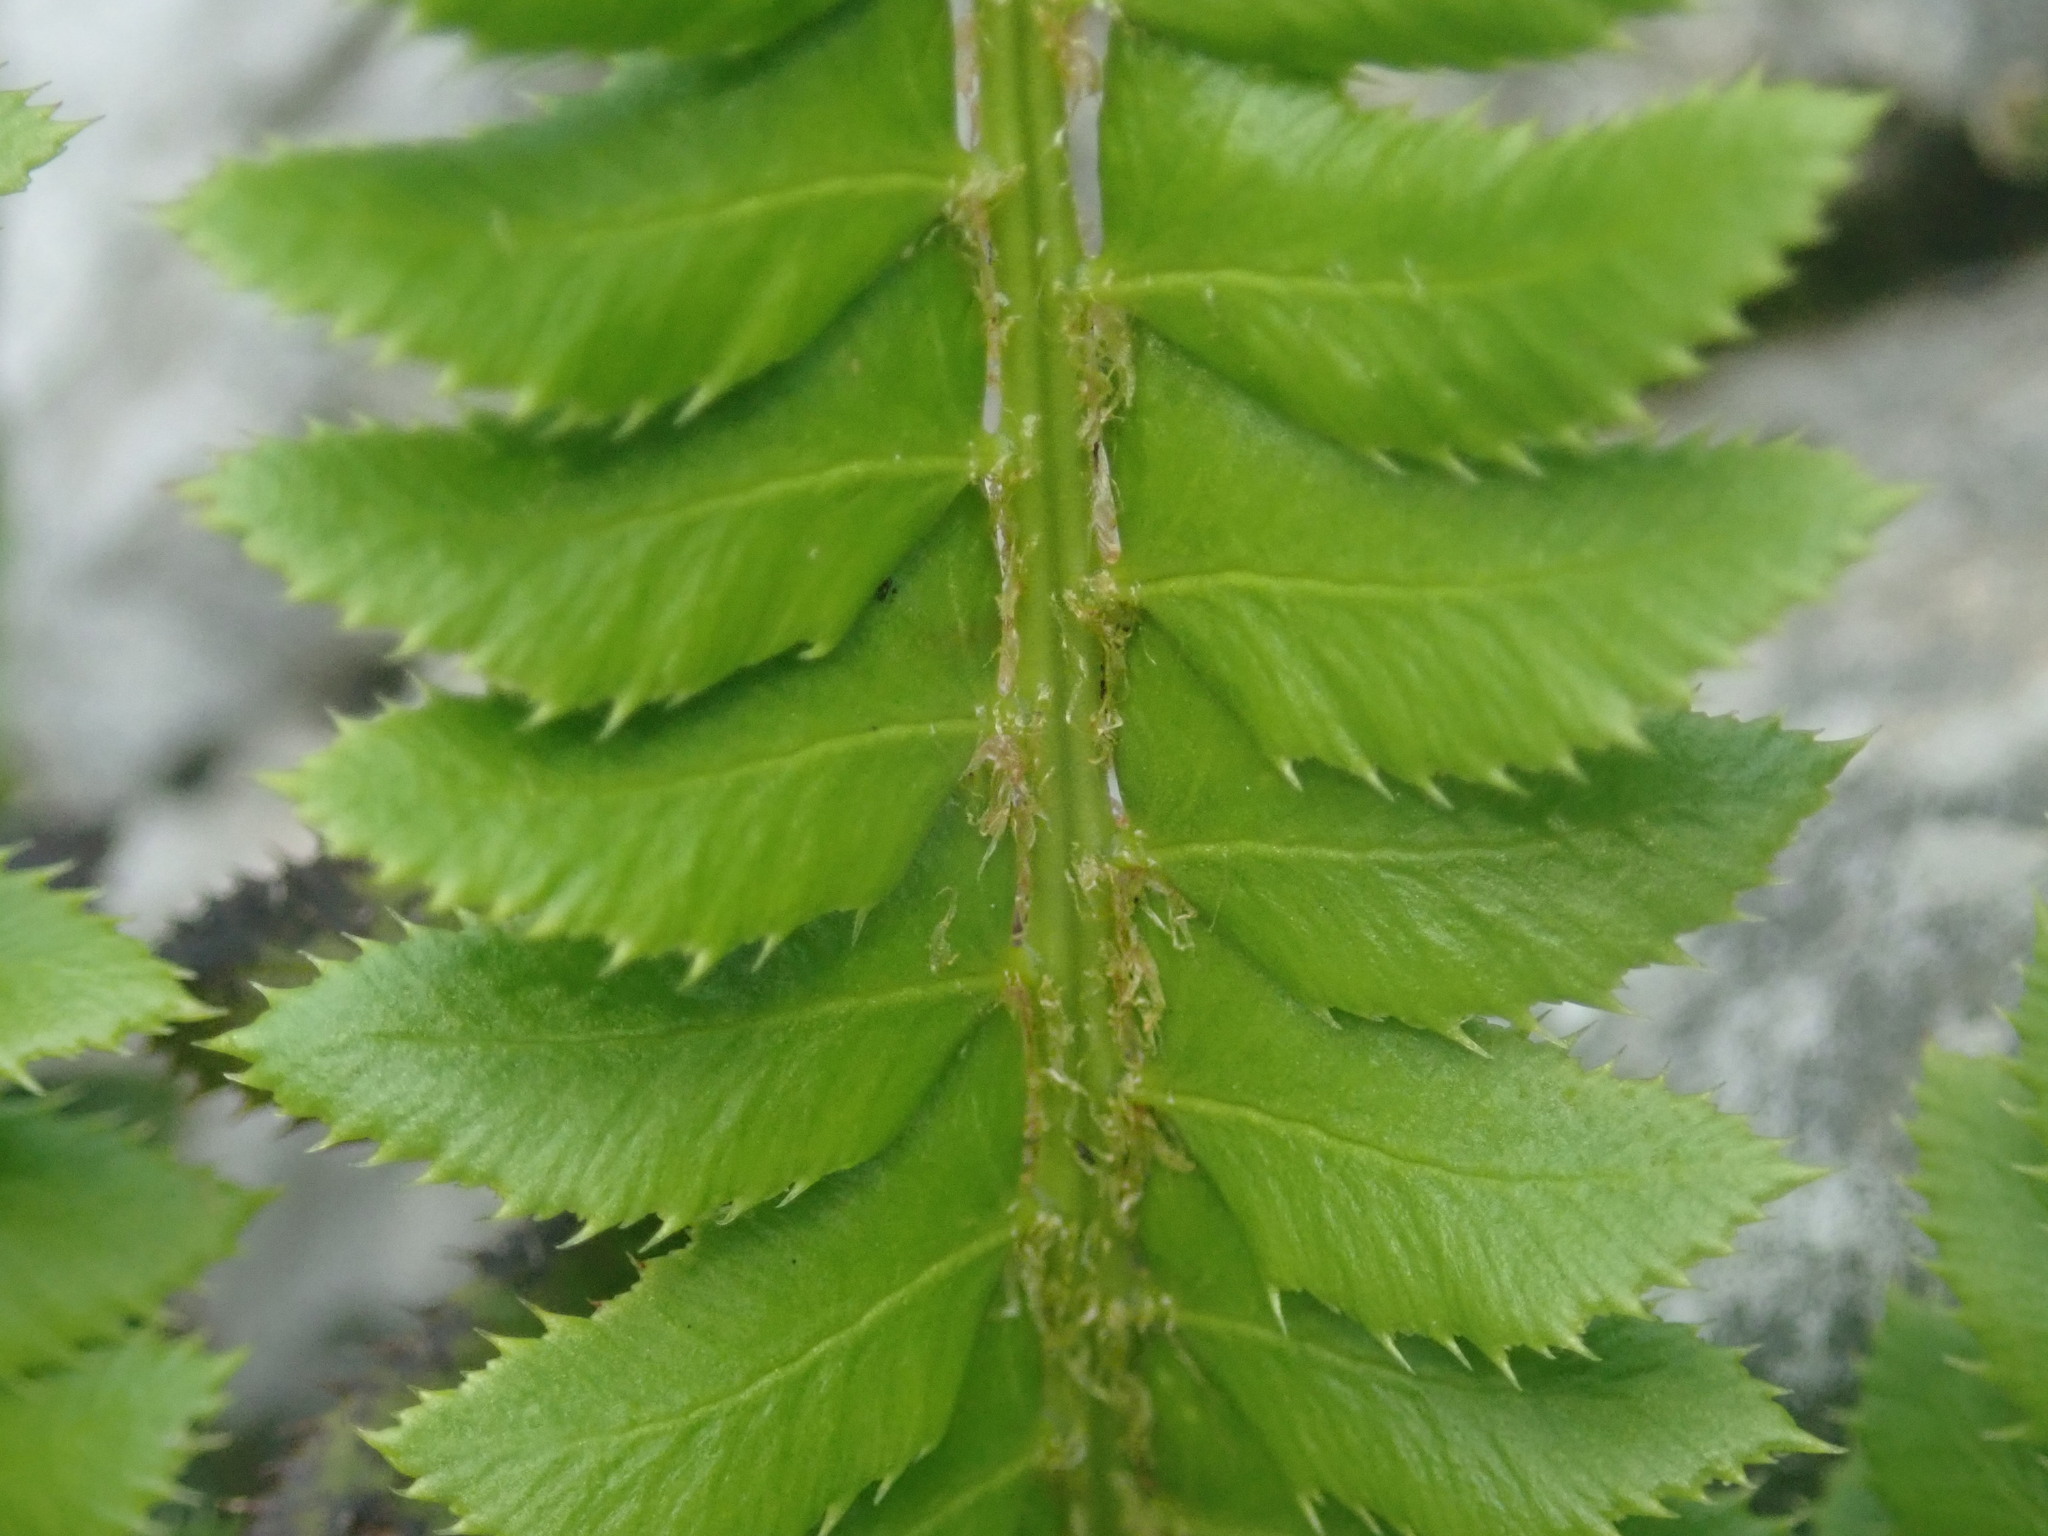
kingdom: Plantae
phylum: Tracheophyta
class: Polypodiopsida
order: Polypodiales
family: Dryopteridaceae
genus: Polystichum
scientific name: Polystichum lonchitis
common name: Holly fern
